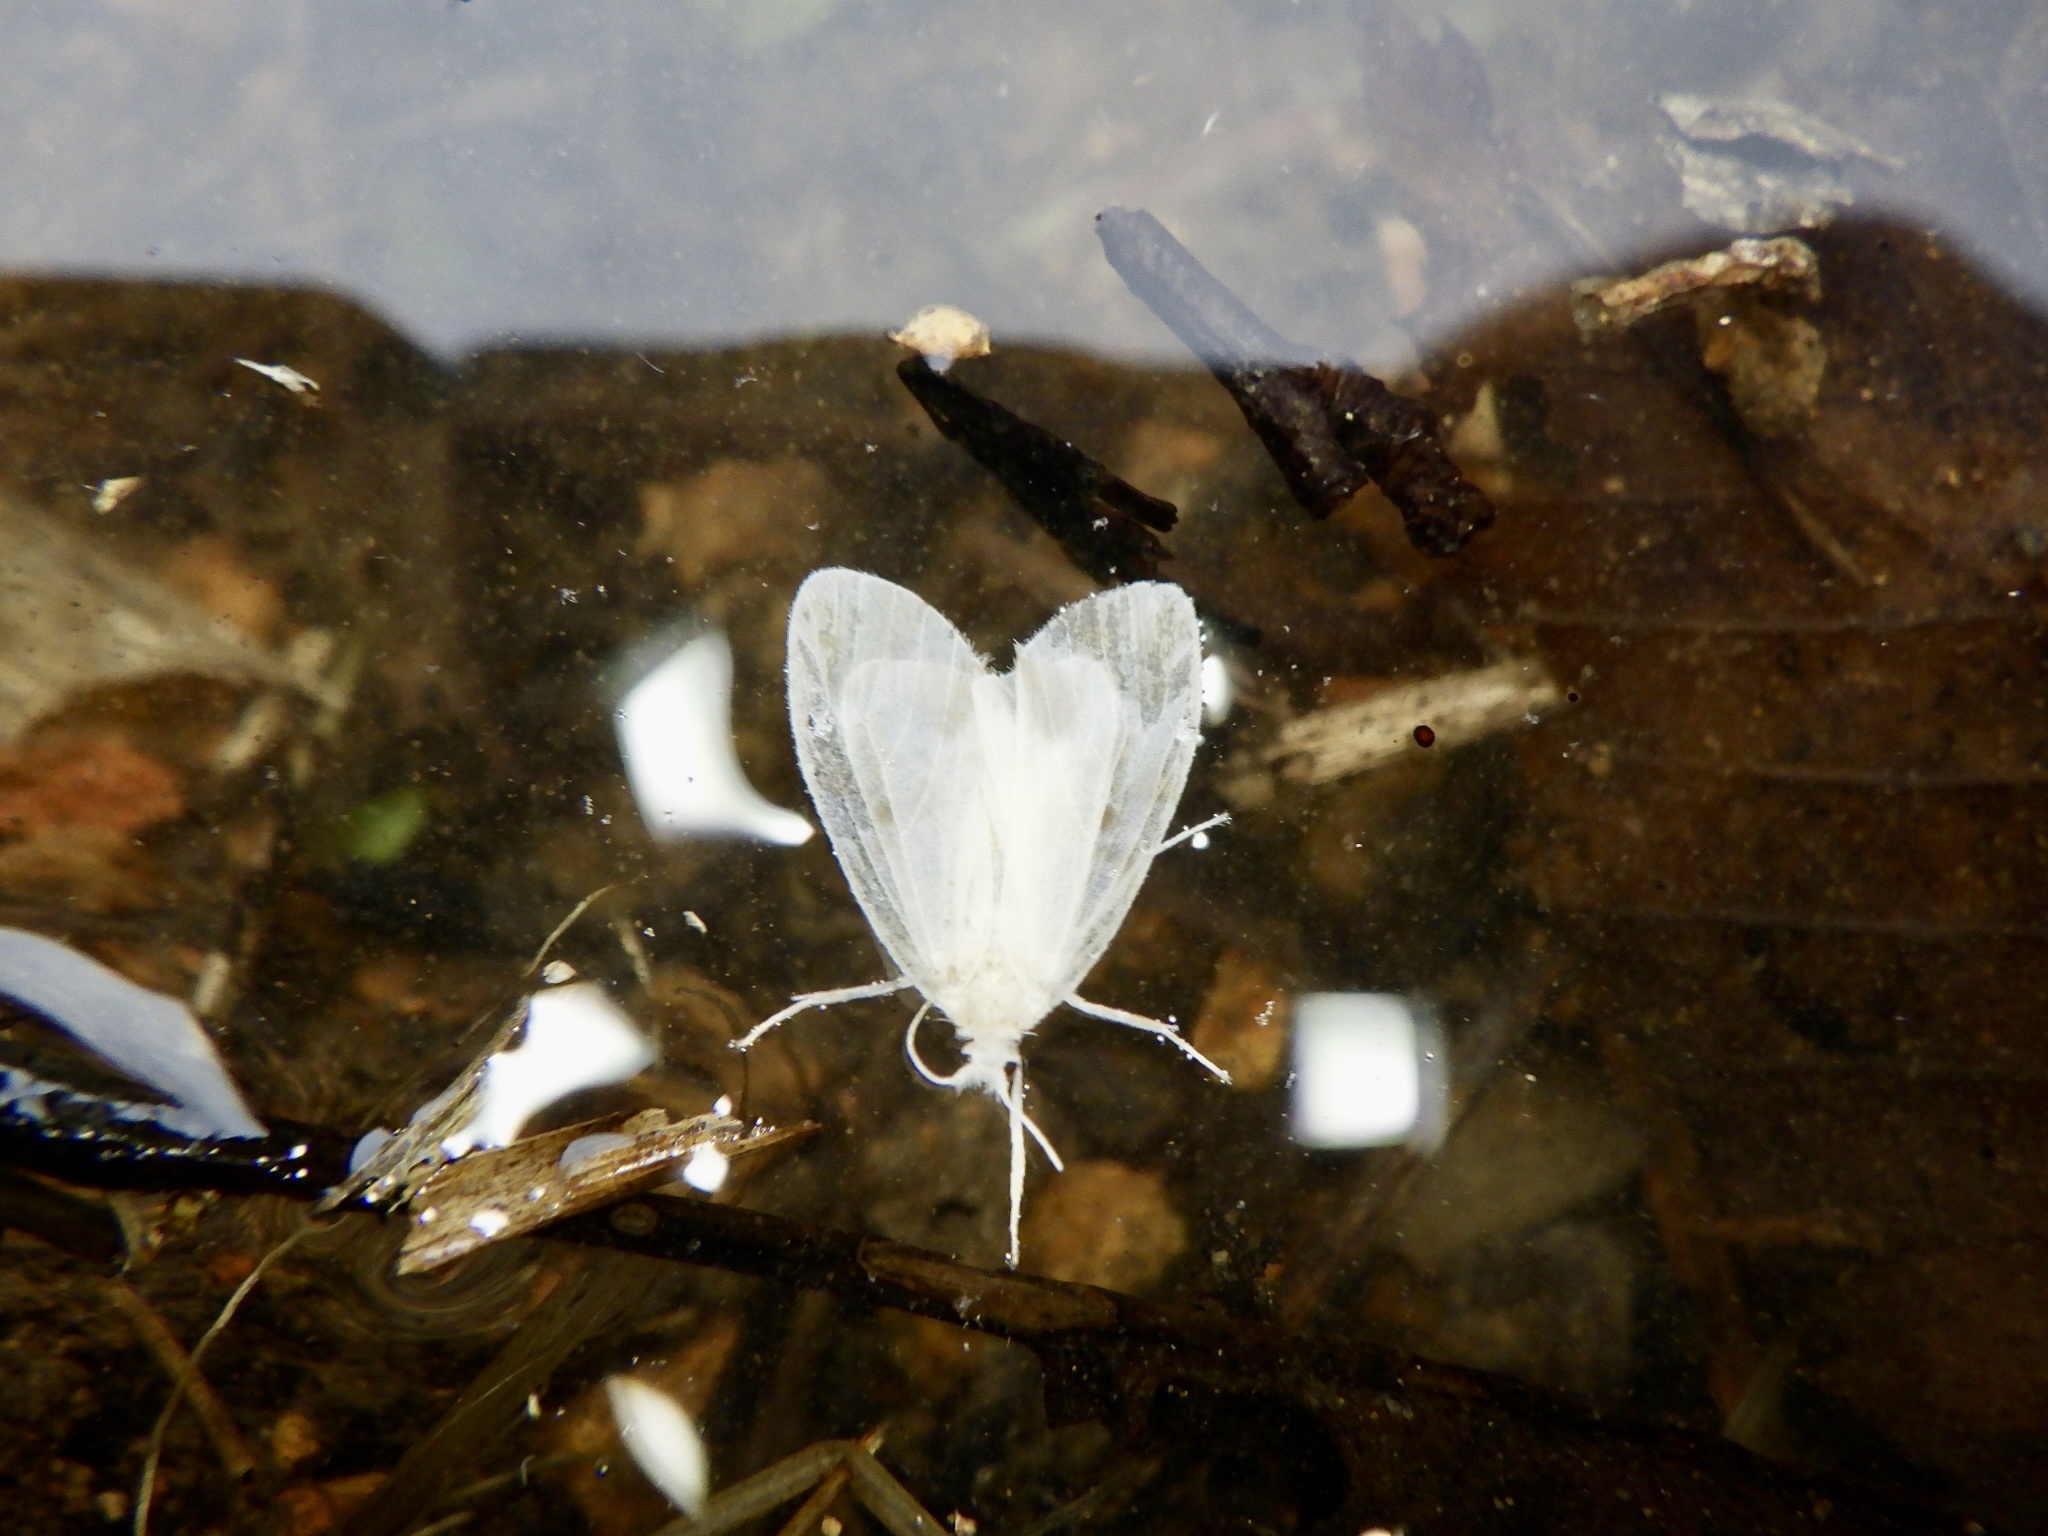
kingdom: Animalia
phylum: Arthropoda
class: Insecta
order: Lepidoptera
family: Erebidae
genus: Nudaria
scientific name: Nudaria ranruna
